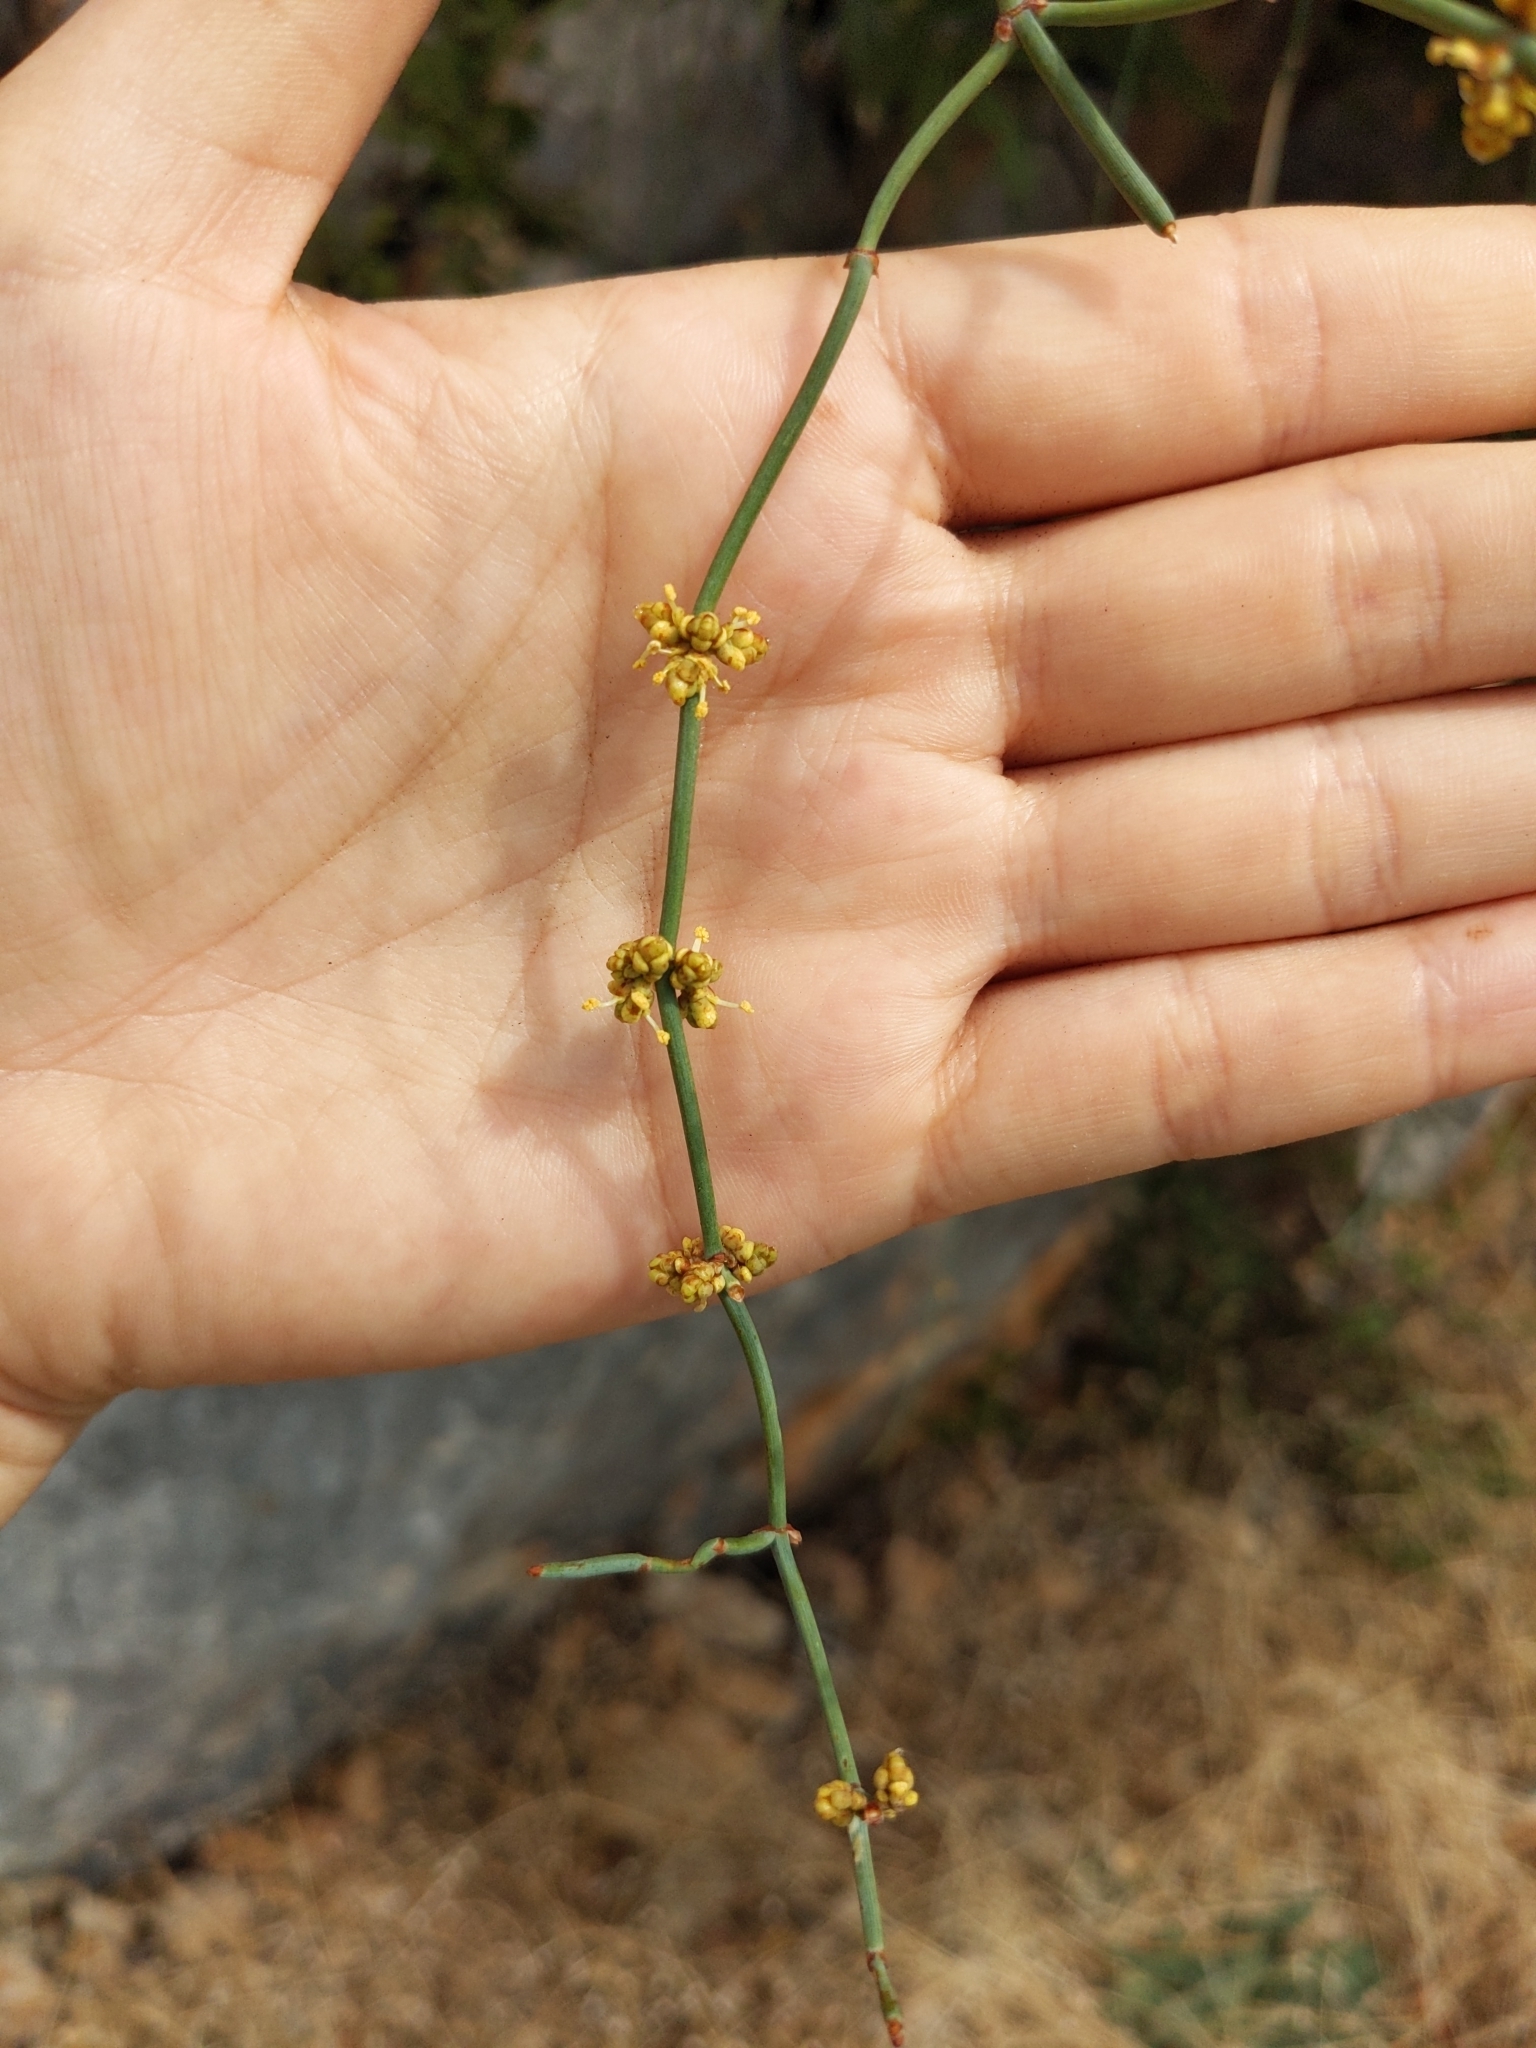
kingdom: Plantae
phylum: Tracheophyta
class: Gnetopsida
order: Ephedrales
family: Ephedraceae
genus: Ephedra
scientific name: Ephedra foeminea
